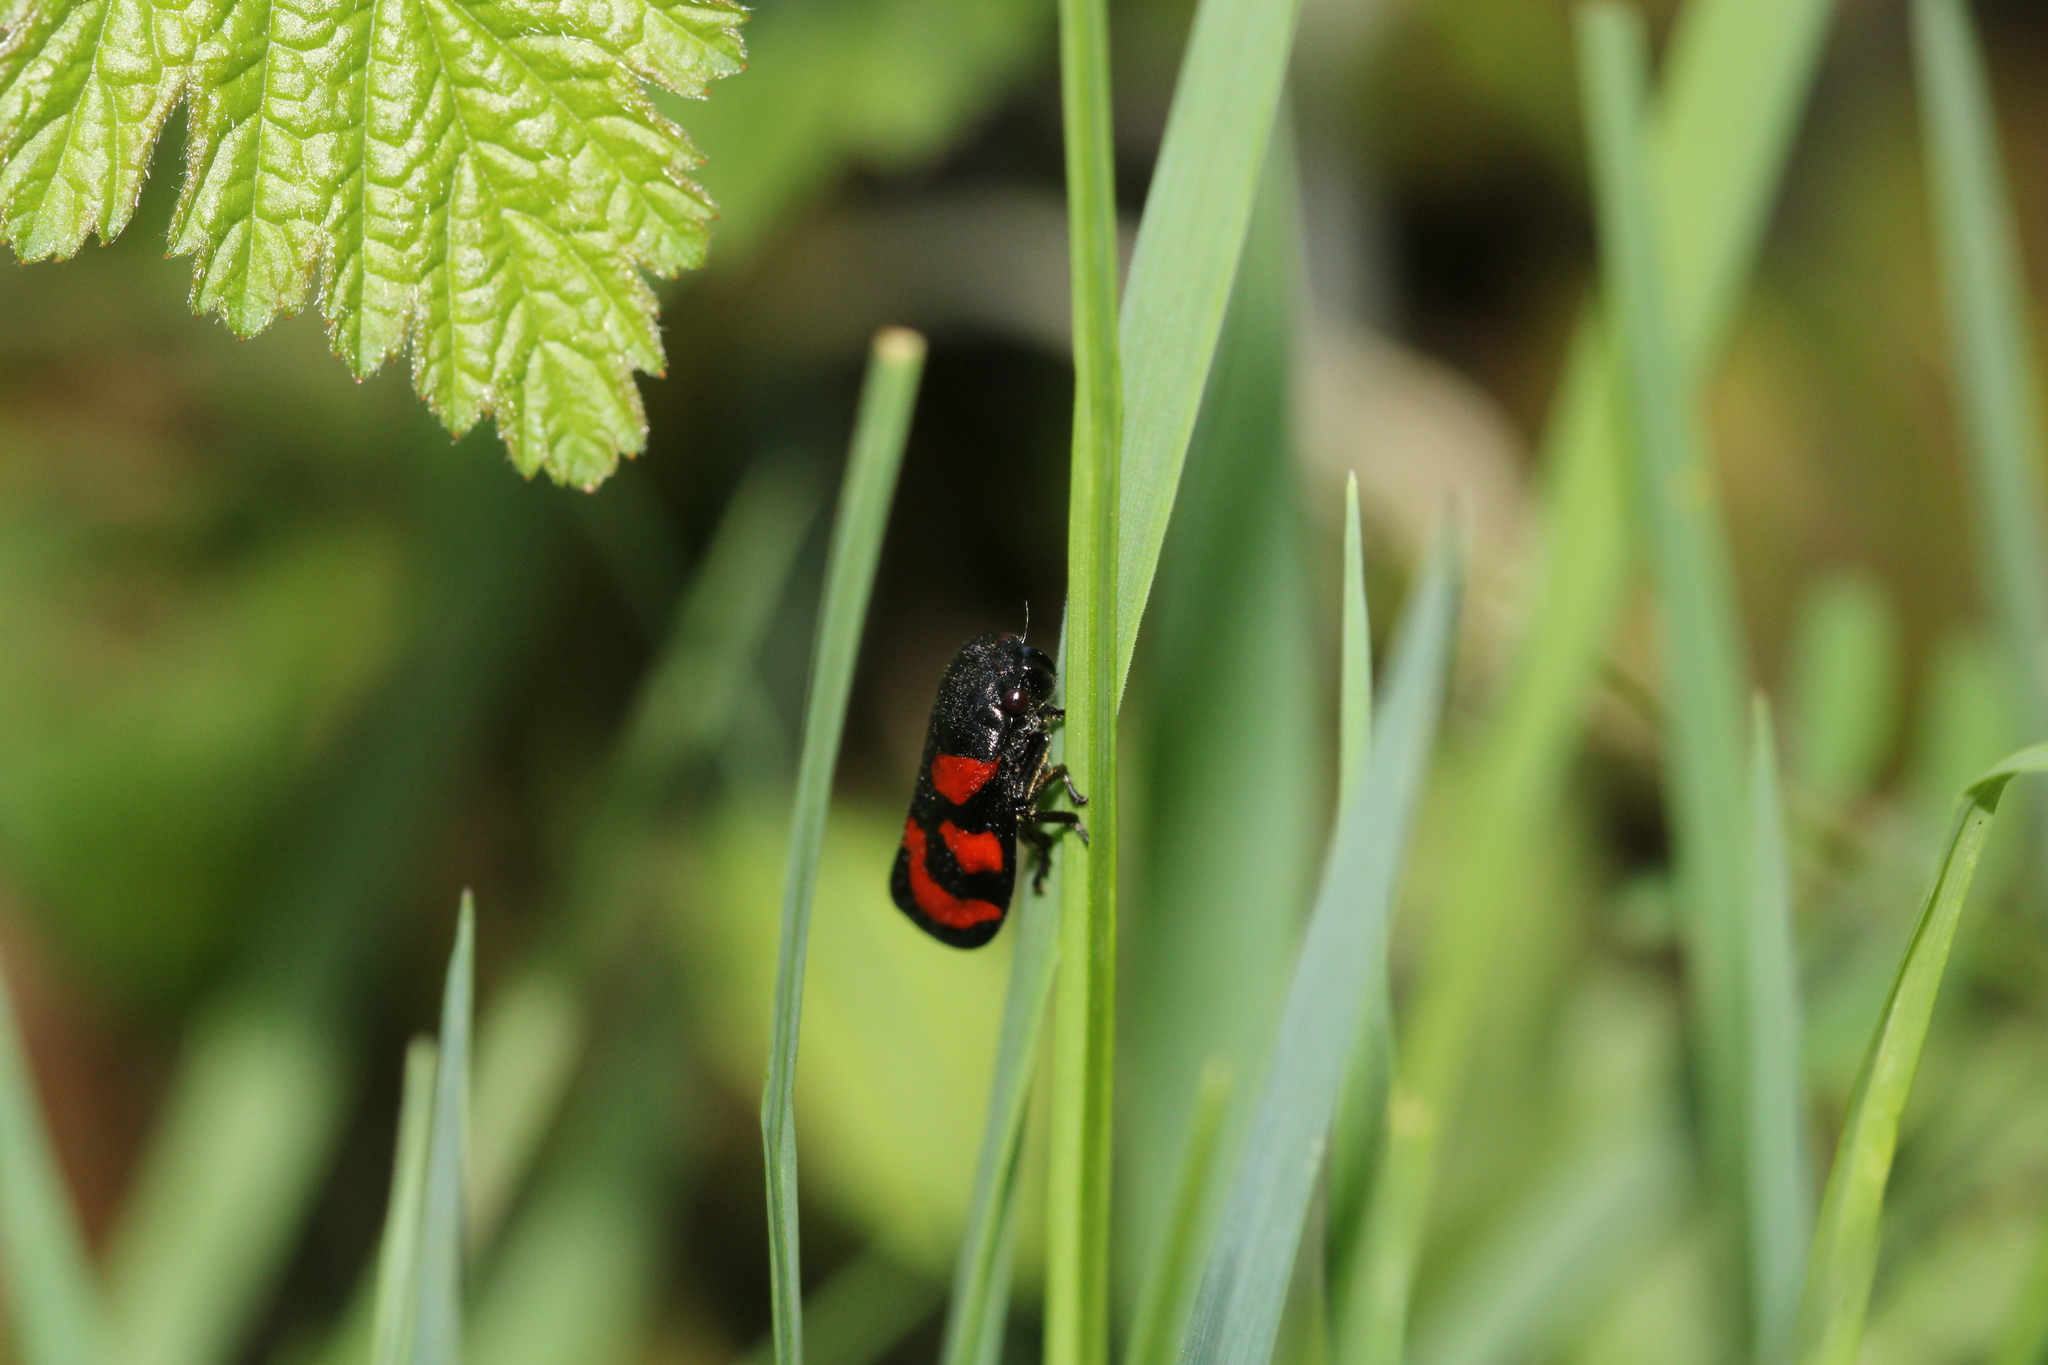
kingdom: Animalia
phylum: Arthropoda
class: Insecta
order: Hemiptera
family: Cercopidae
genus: Cercopis
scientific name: Cercopis vulnerata
